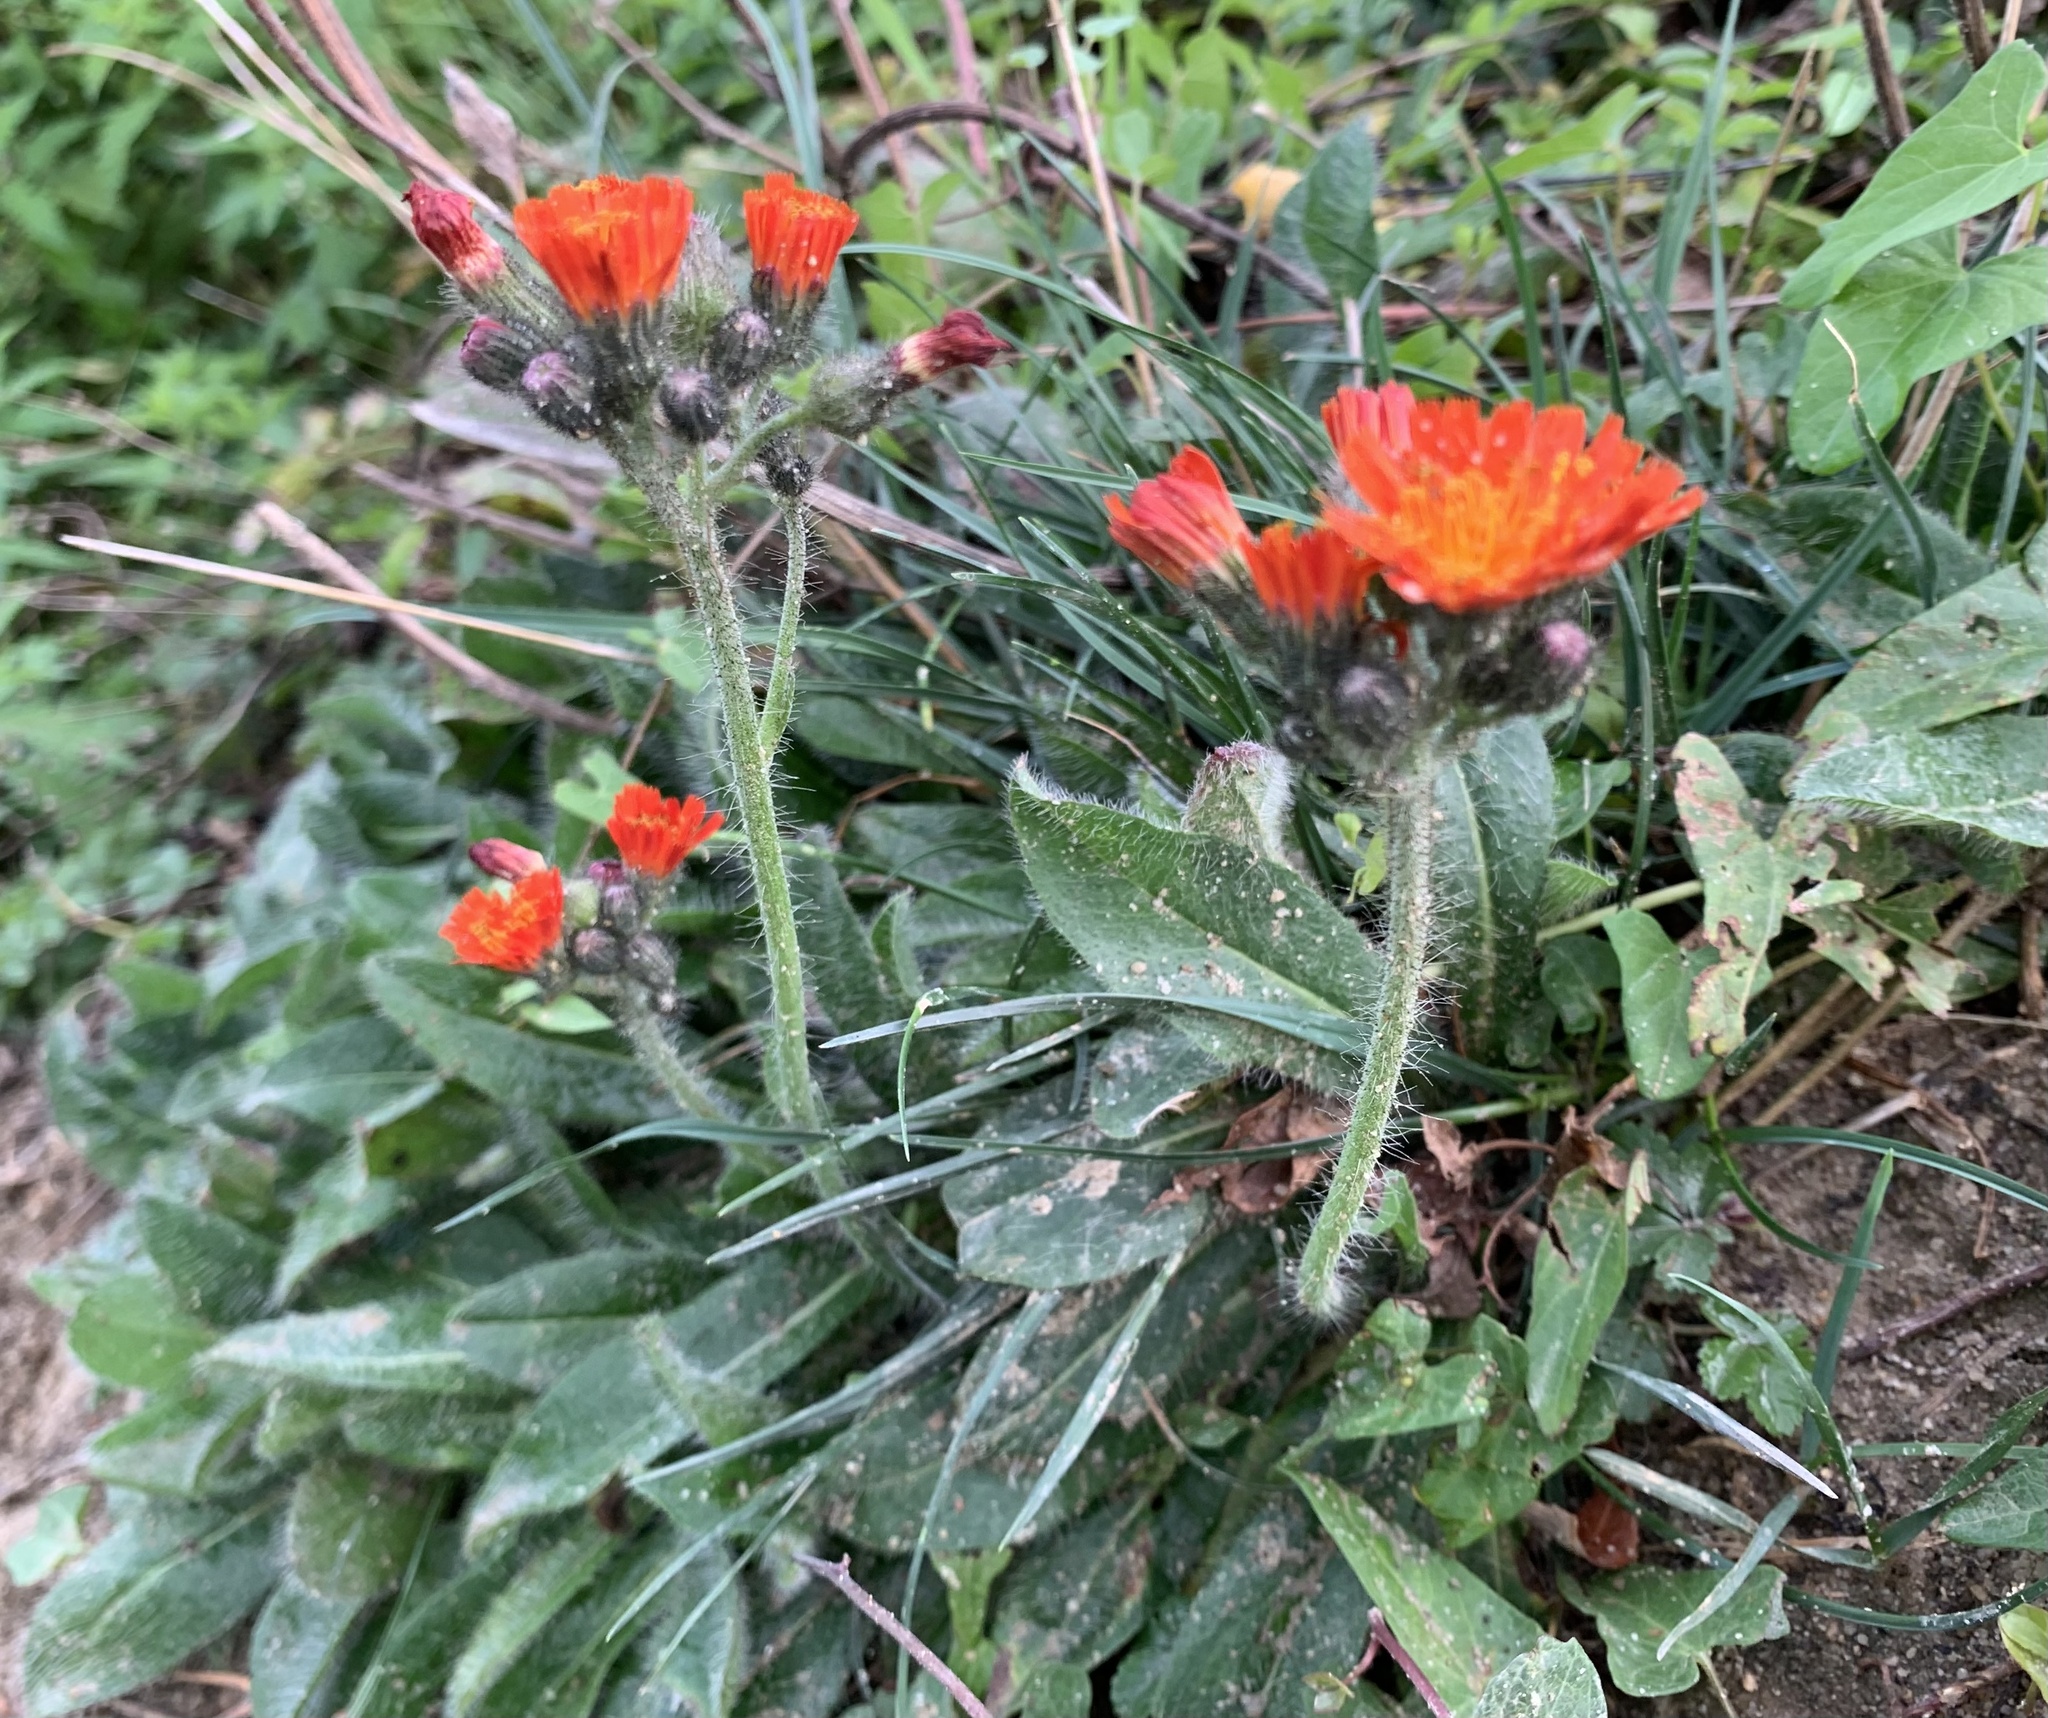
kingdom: Plantae
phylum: Tracheophyta
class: Magnoliopsida
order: Asterales
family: Asteraceae
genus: Pilosella
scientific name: Pilosella aurantiaca
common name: Fox-and-cubs
